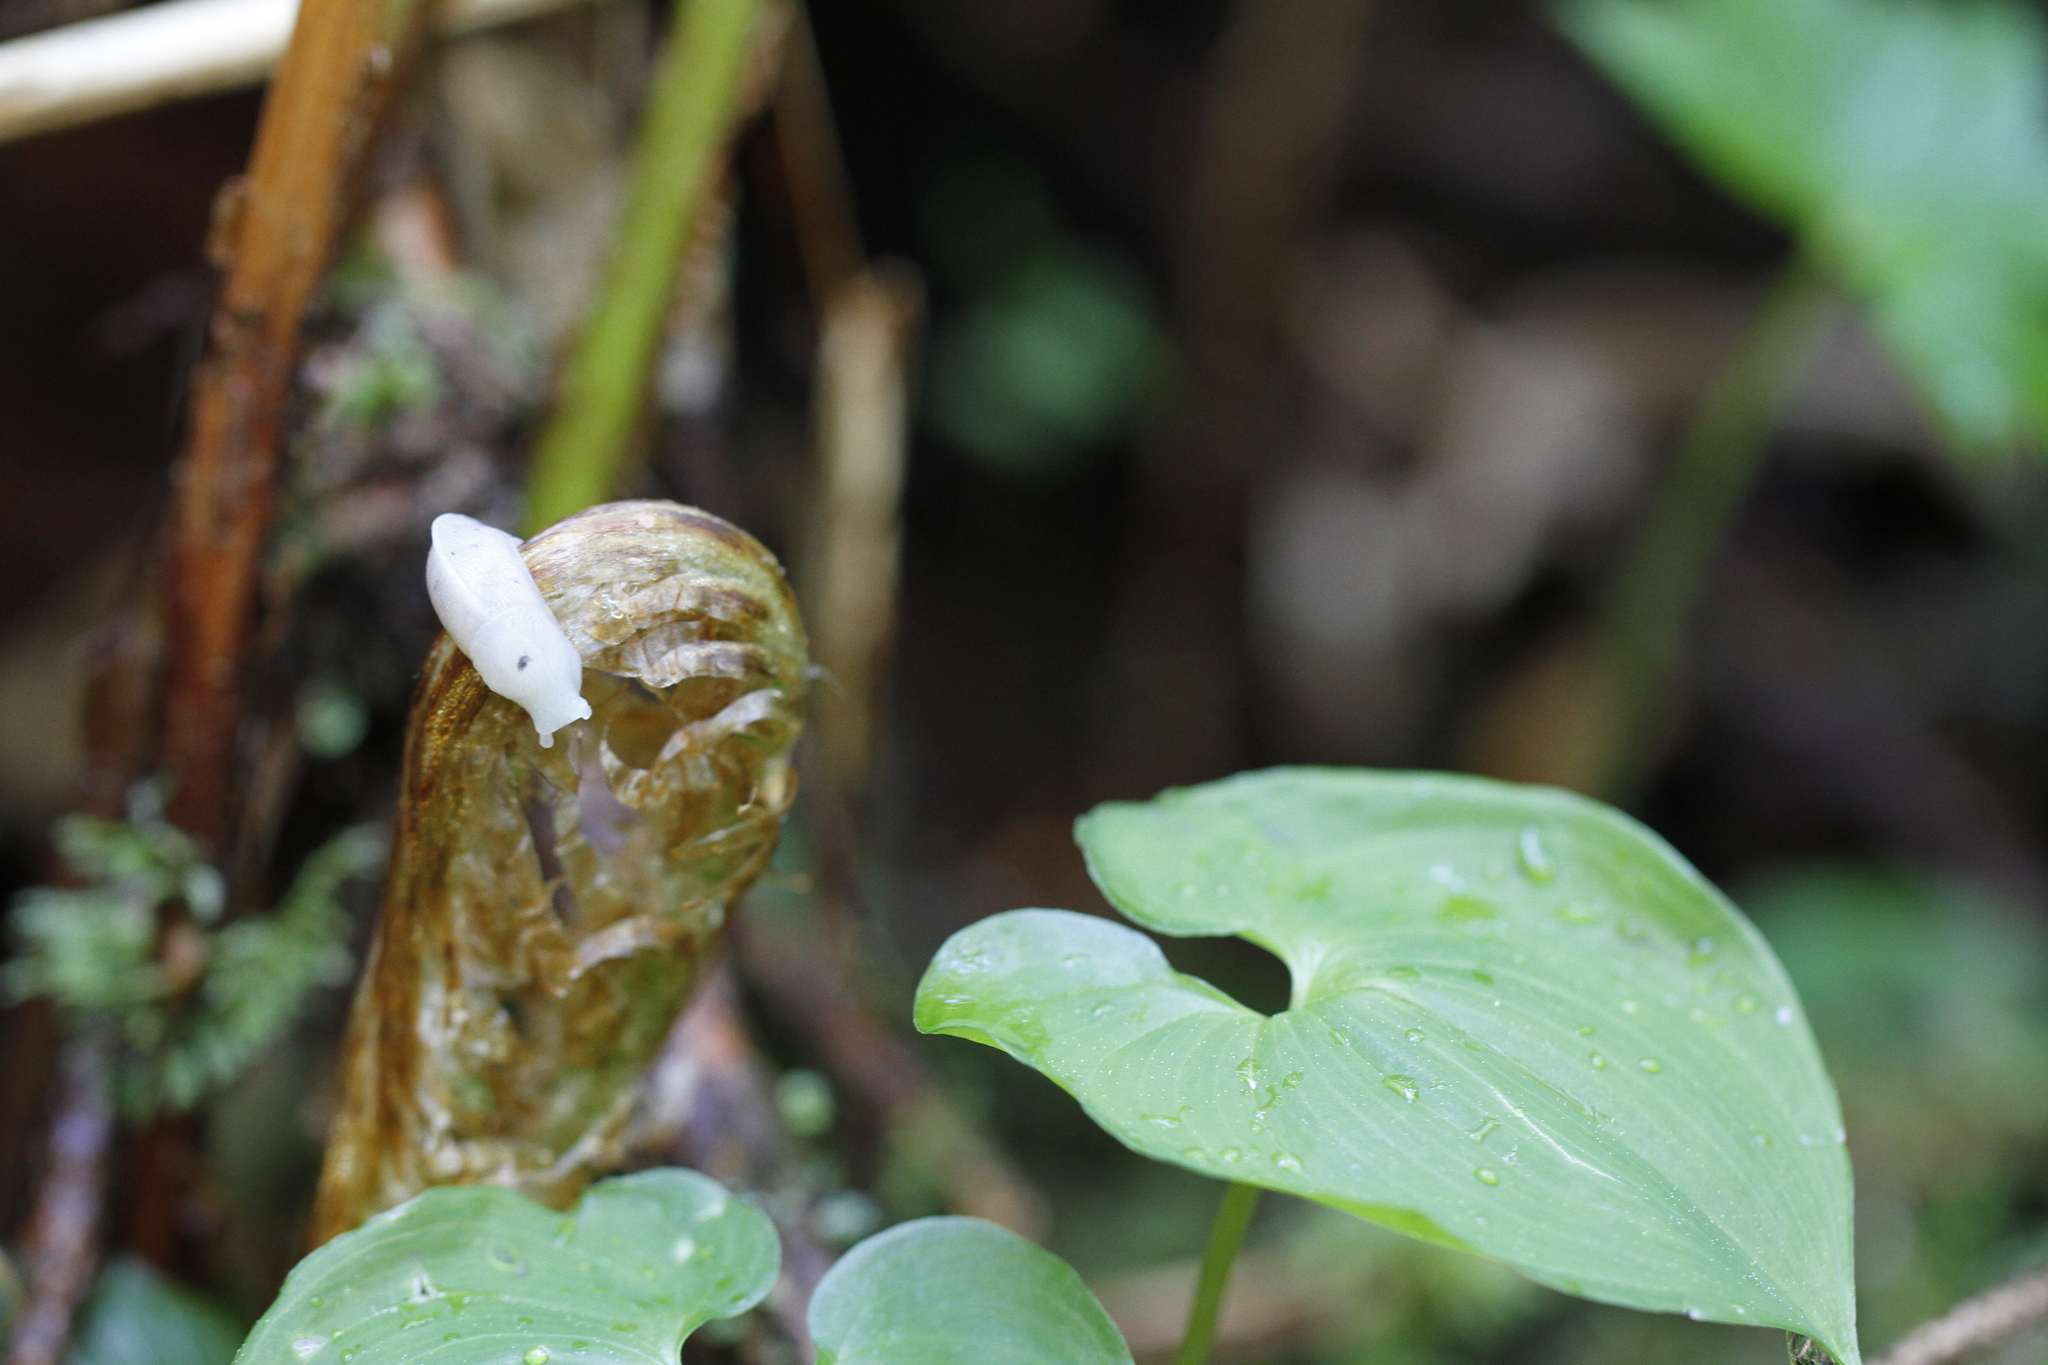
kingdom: Animalia
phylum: Mollusca
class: Gastropoda
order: Stylommatophora
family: Ariolimacidae
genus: Ariolimax
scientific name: Ariolimax columbianus
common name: Pacific banana slug
